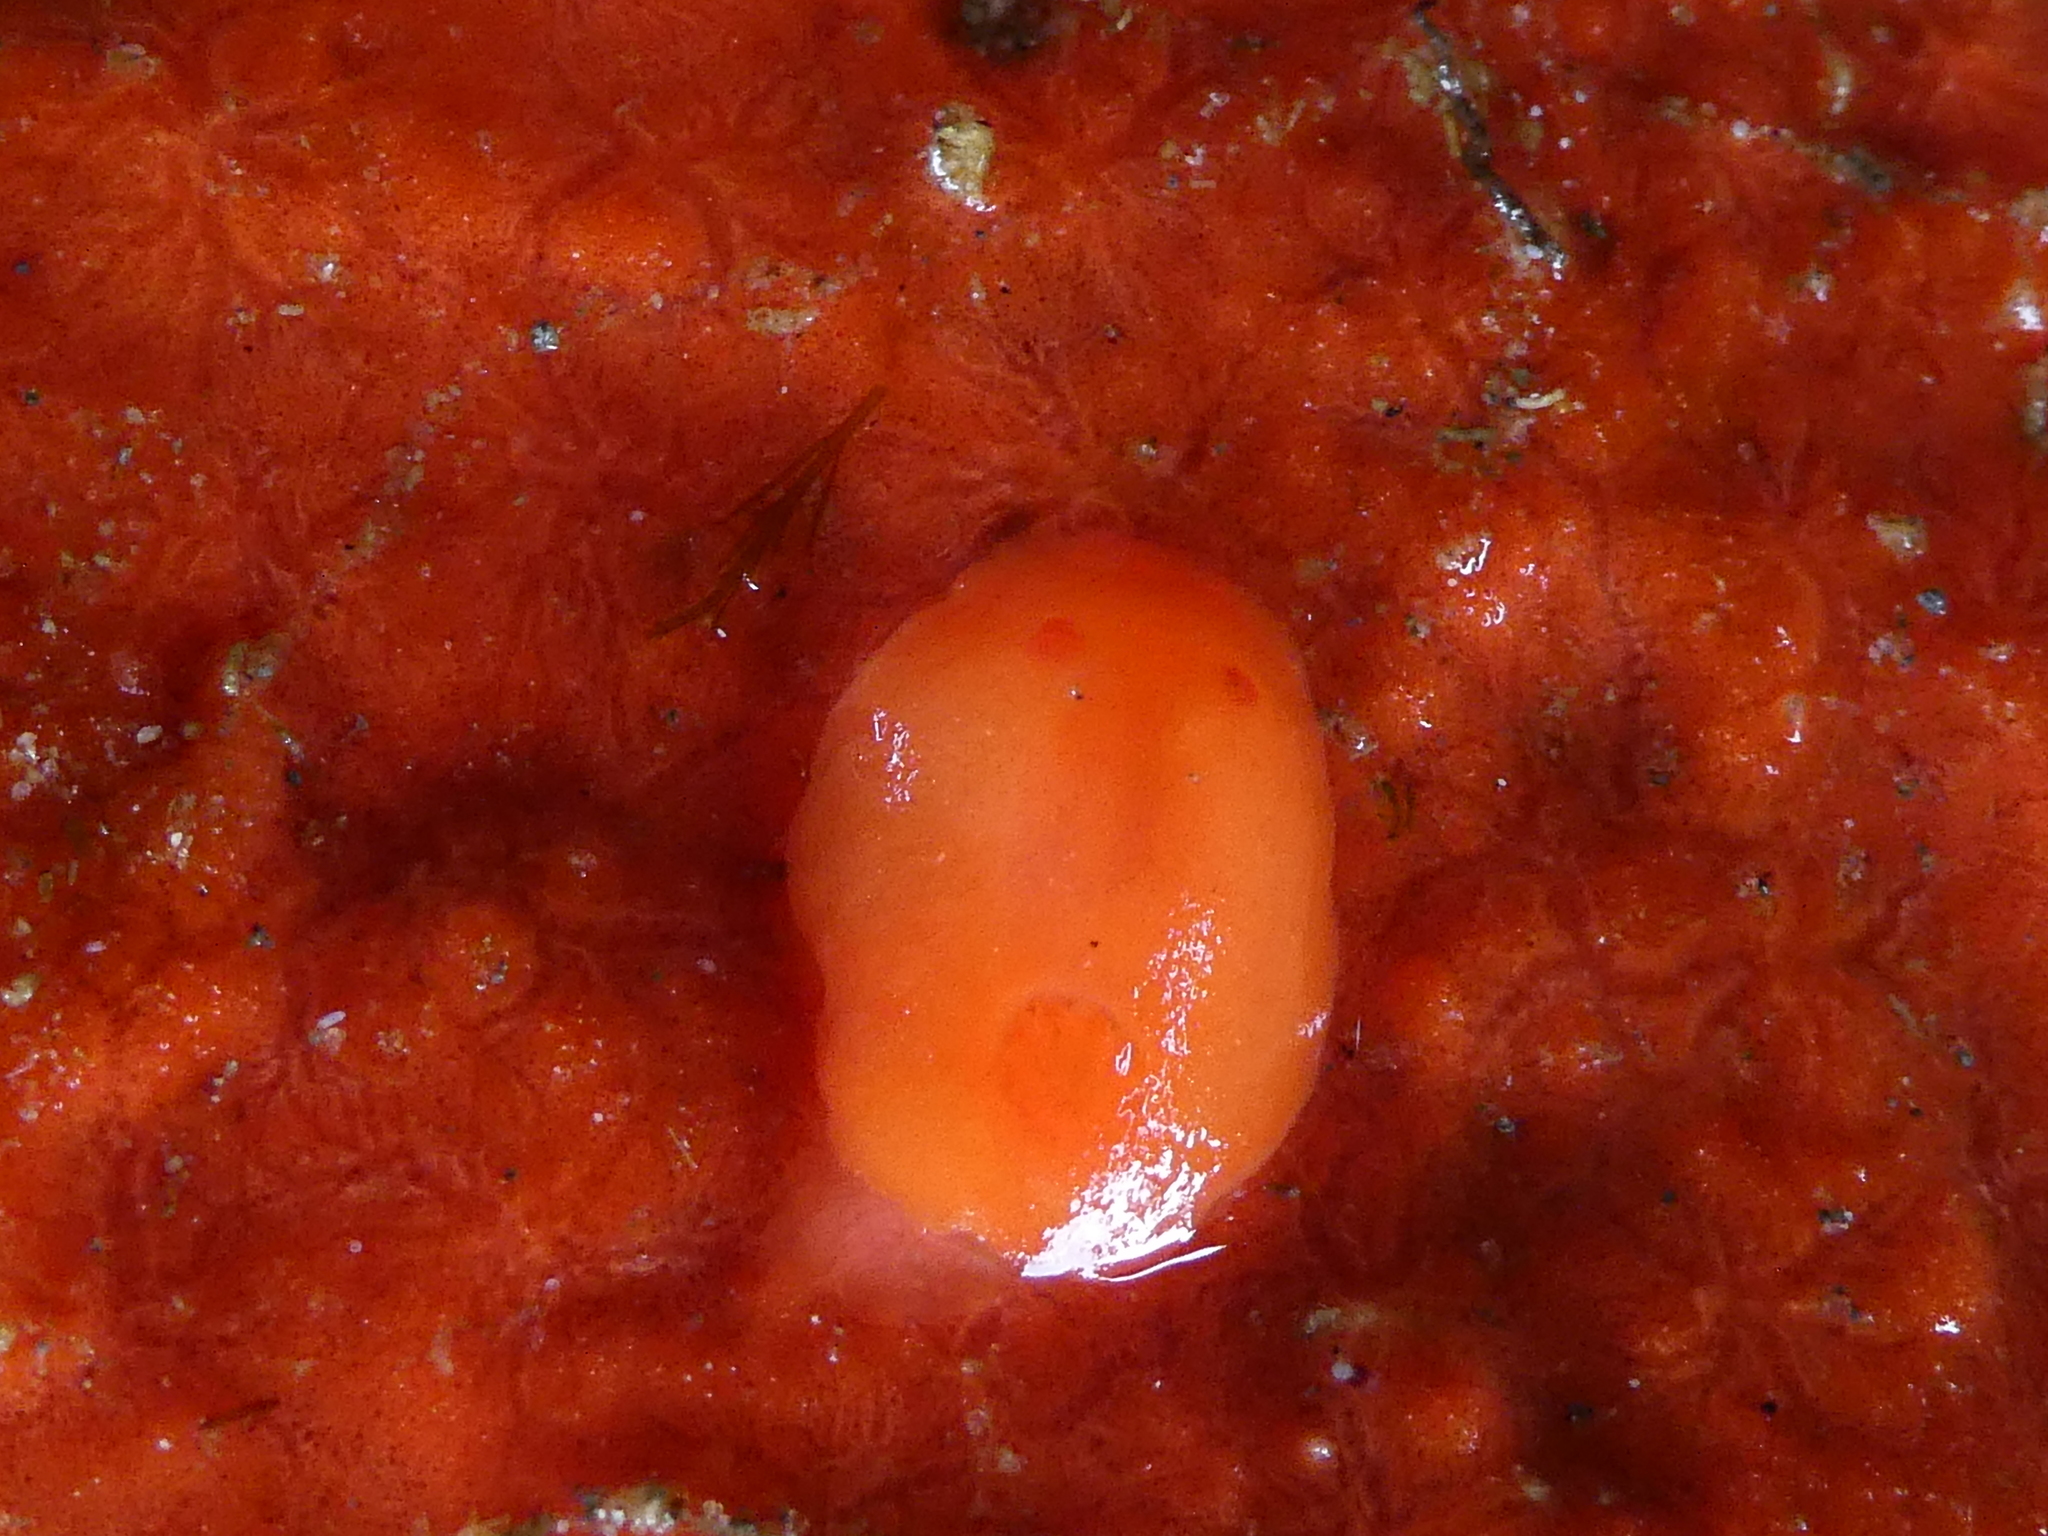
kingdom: Animalia
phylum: Mollusca
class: Gastropoda
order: Nudibranchia
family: Discodorididae
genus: Rostanga
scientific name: Rostanga pulchra
